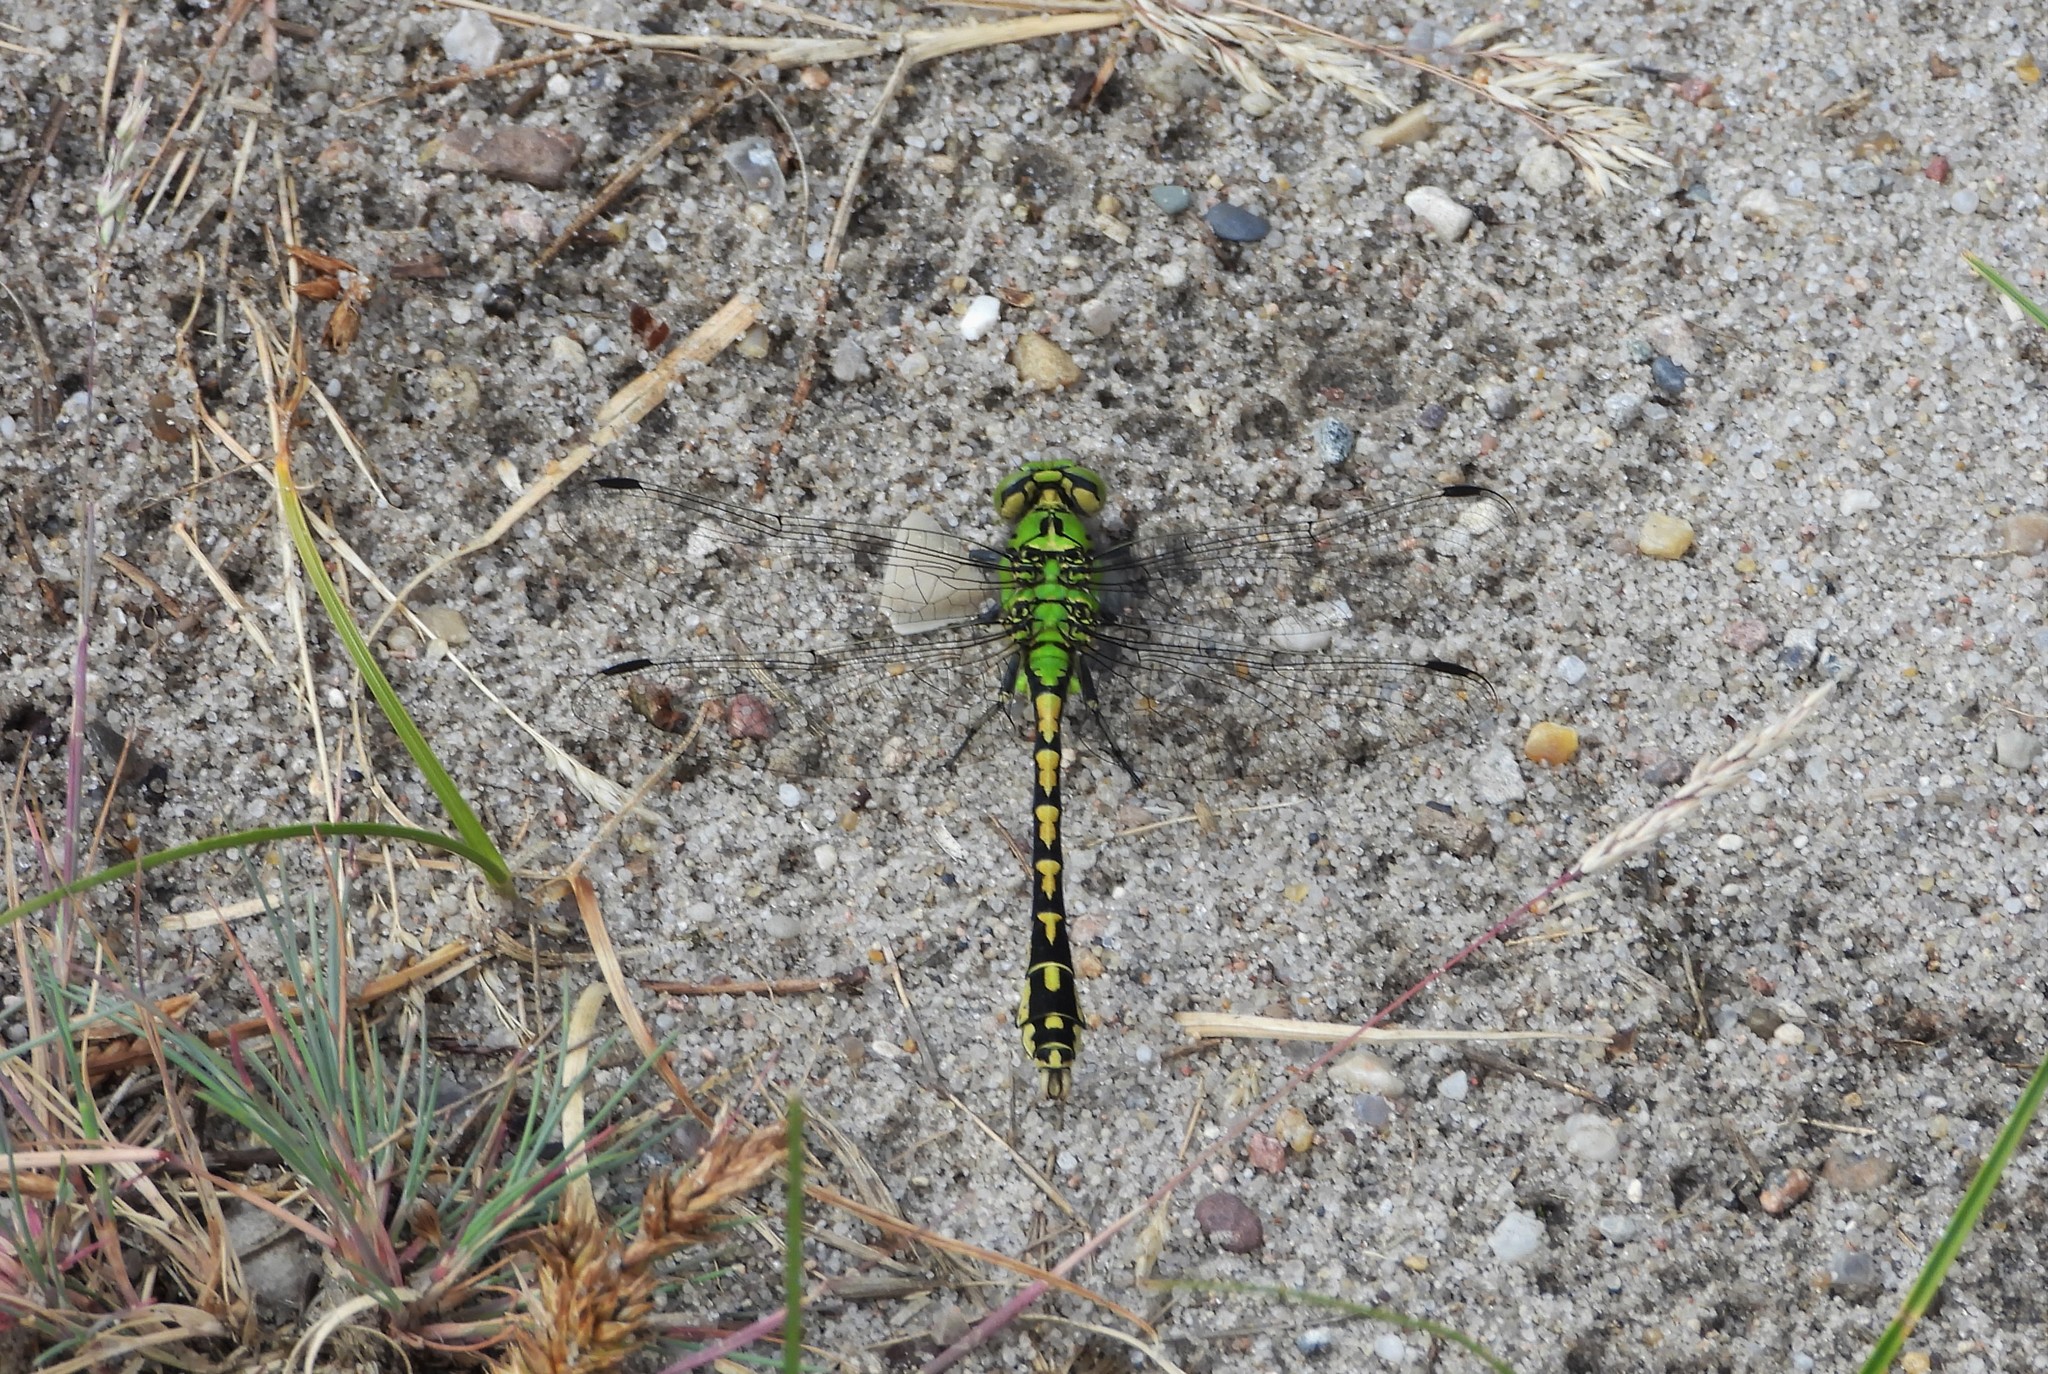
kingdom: Animalia
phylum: Arthropoda
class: Insecta
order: Odonata
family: Gomphidae
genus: Ophiogomphus
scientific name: Ophiogomphus cecilia
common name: Green snaketail
